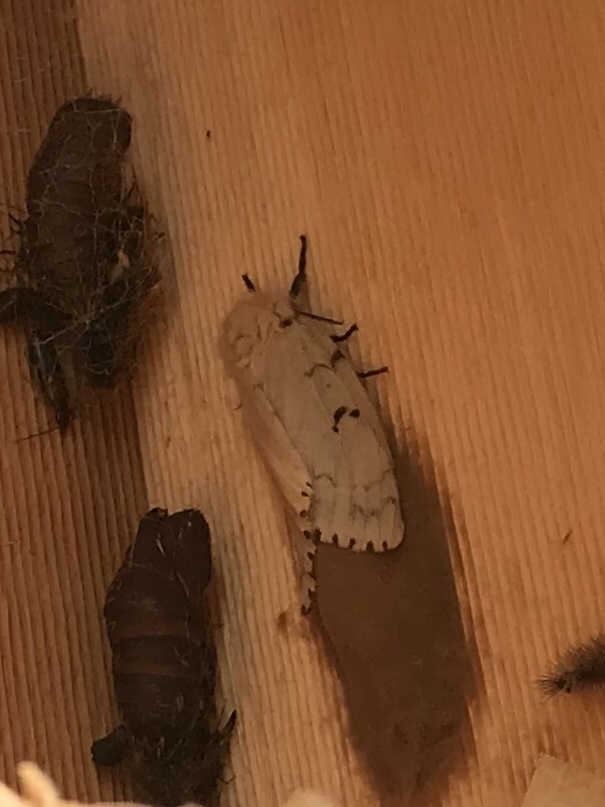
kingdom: Animalia
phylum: Arthropoda
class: Insecta
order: Lepidoptera
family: Erebidae
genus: Lymantria
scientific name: Lymantria dispar
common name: Gypsy moth
